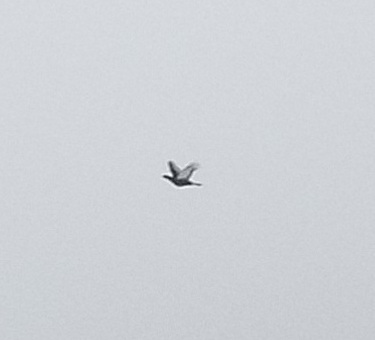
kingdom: Animalia
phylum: Chordata
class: Aves
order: Galliformes
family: Phasianidae
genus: Lyrurus
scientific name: Lyrurus tetrix
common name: Black grouse
